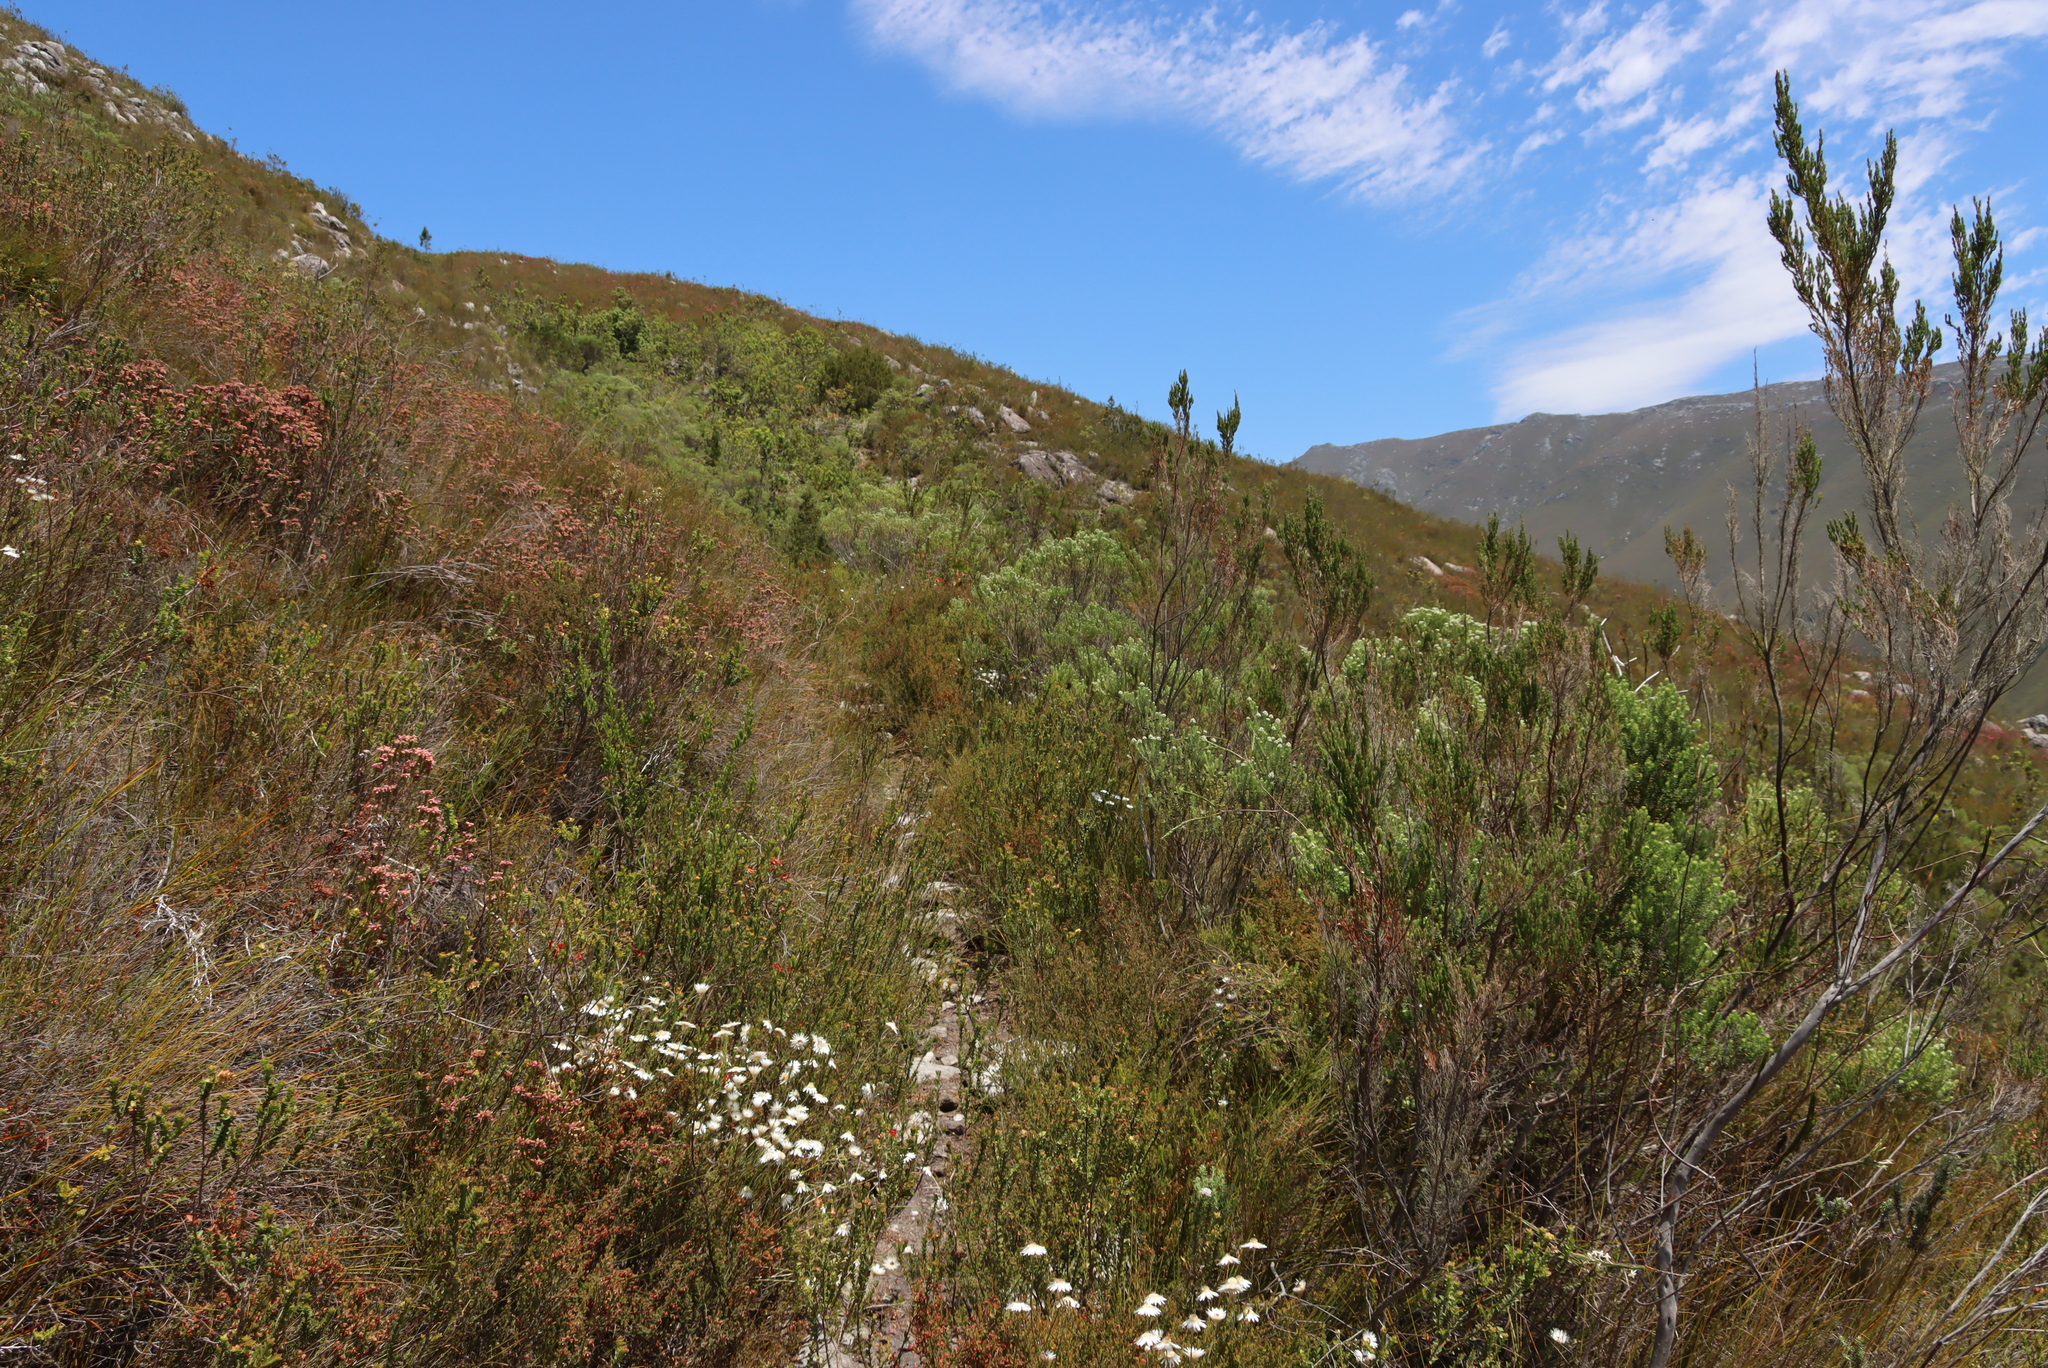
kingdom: Plantae
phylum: Tracheophyta
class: Magnoliopsida
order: Rosales
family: Rhamnaceae
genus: Phylica
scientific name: Phylica pinea
